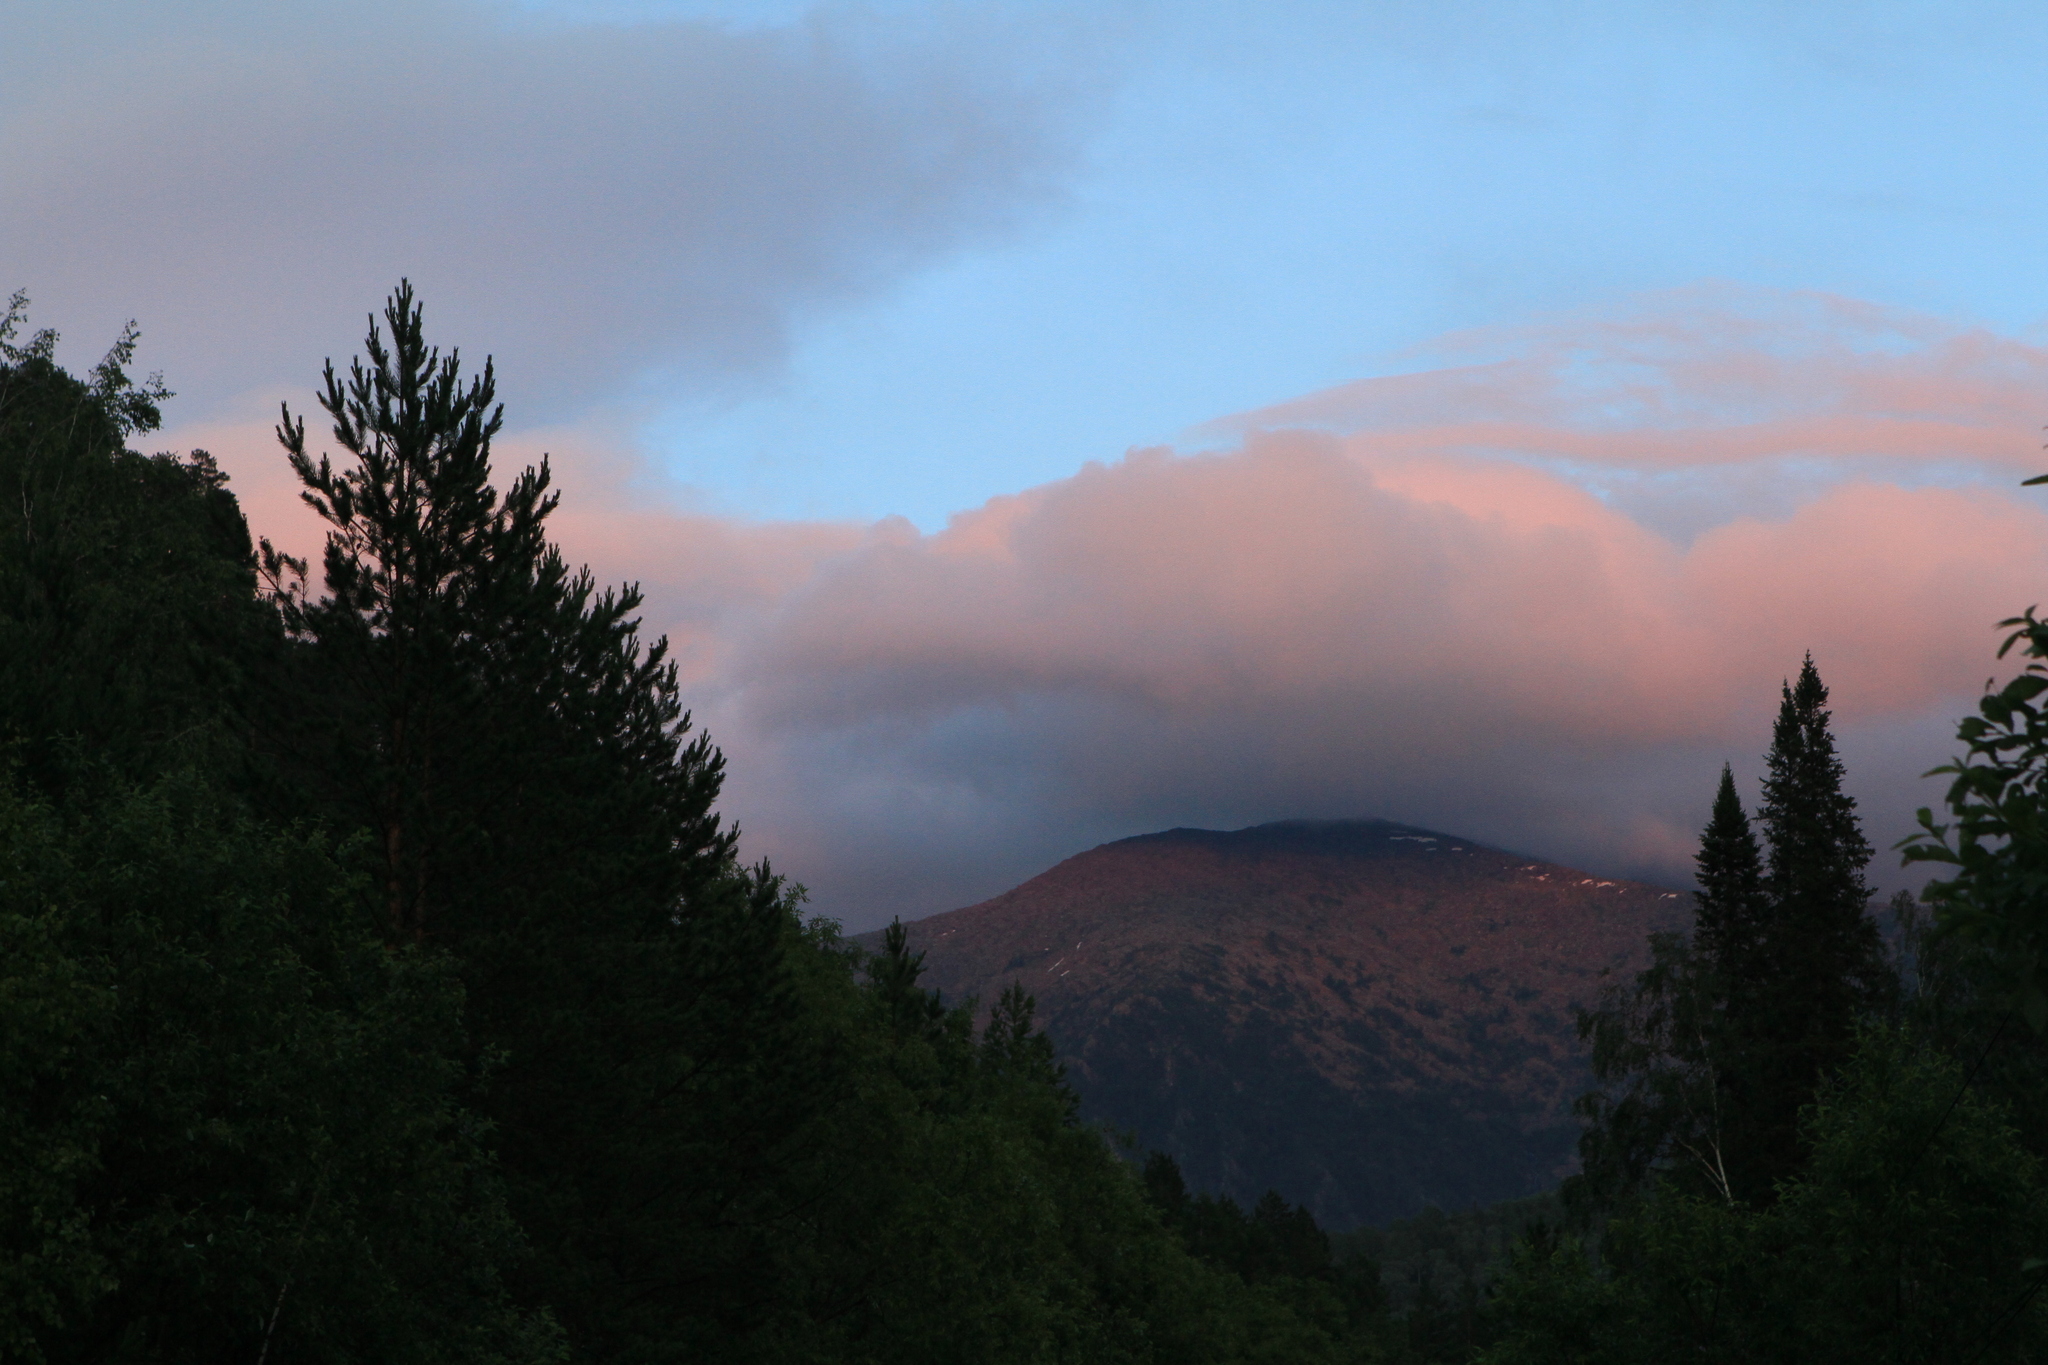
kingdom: Plantae
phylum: Tracheophyta
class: Pinopsida
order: Pinales
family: Pinaceae
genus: Abies
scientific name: Abies sibirica
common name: Siberian fir
